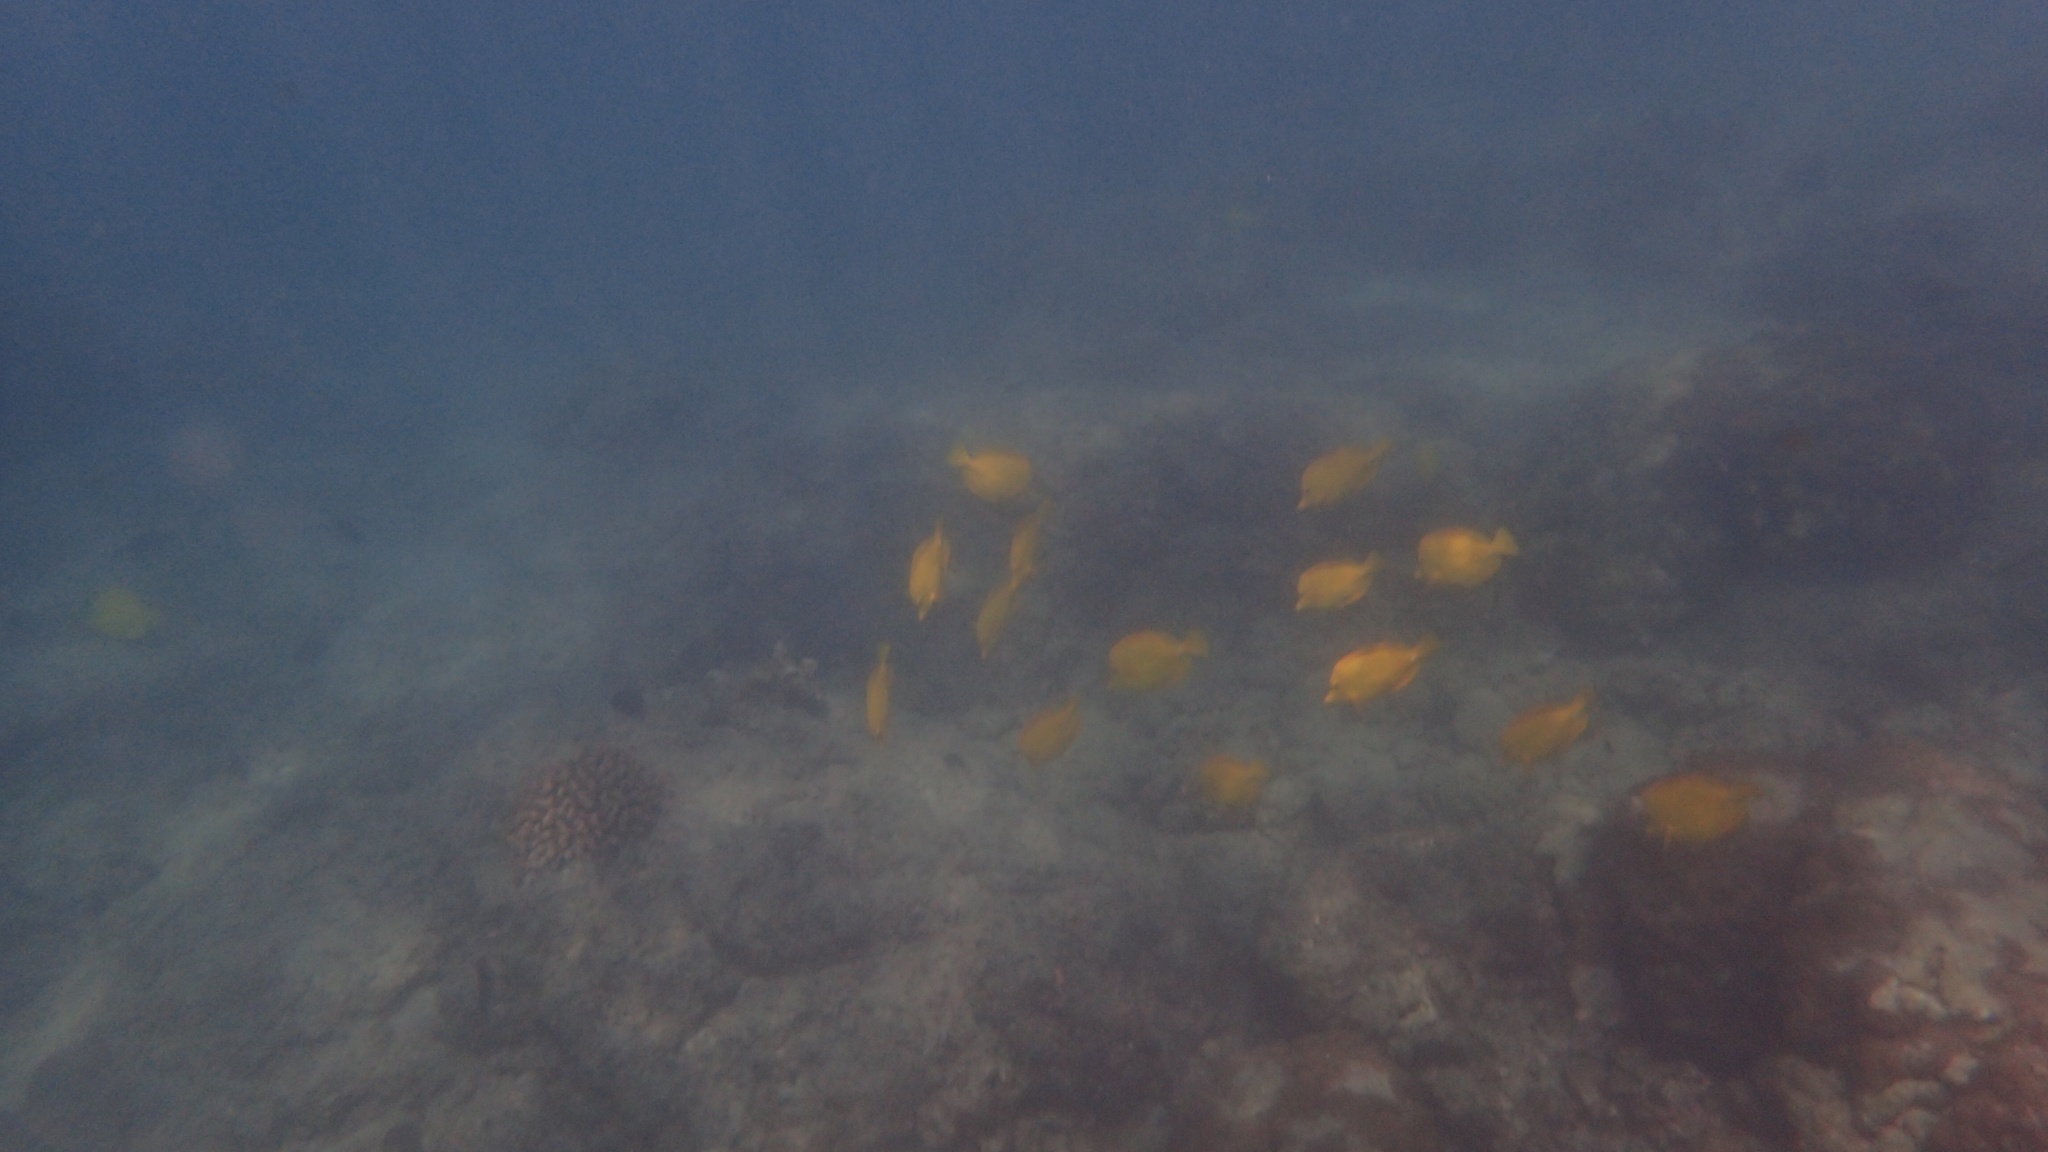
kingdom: Animalia
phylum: Chordata
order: Perciformes
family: Acanthuridae
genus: Zebrasoma
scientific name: Zebrasoma flavescens
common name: Yellow tang
